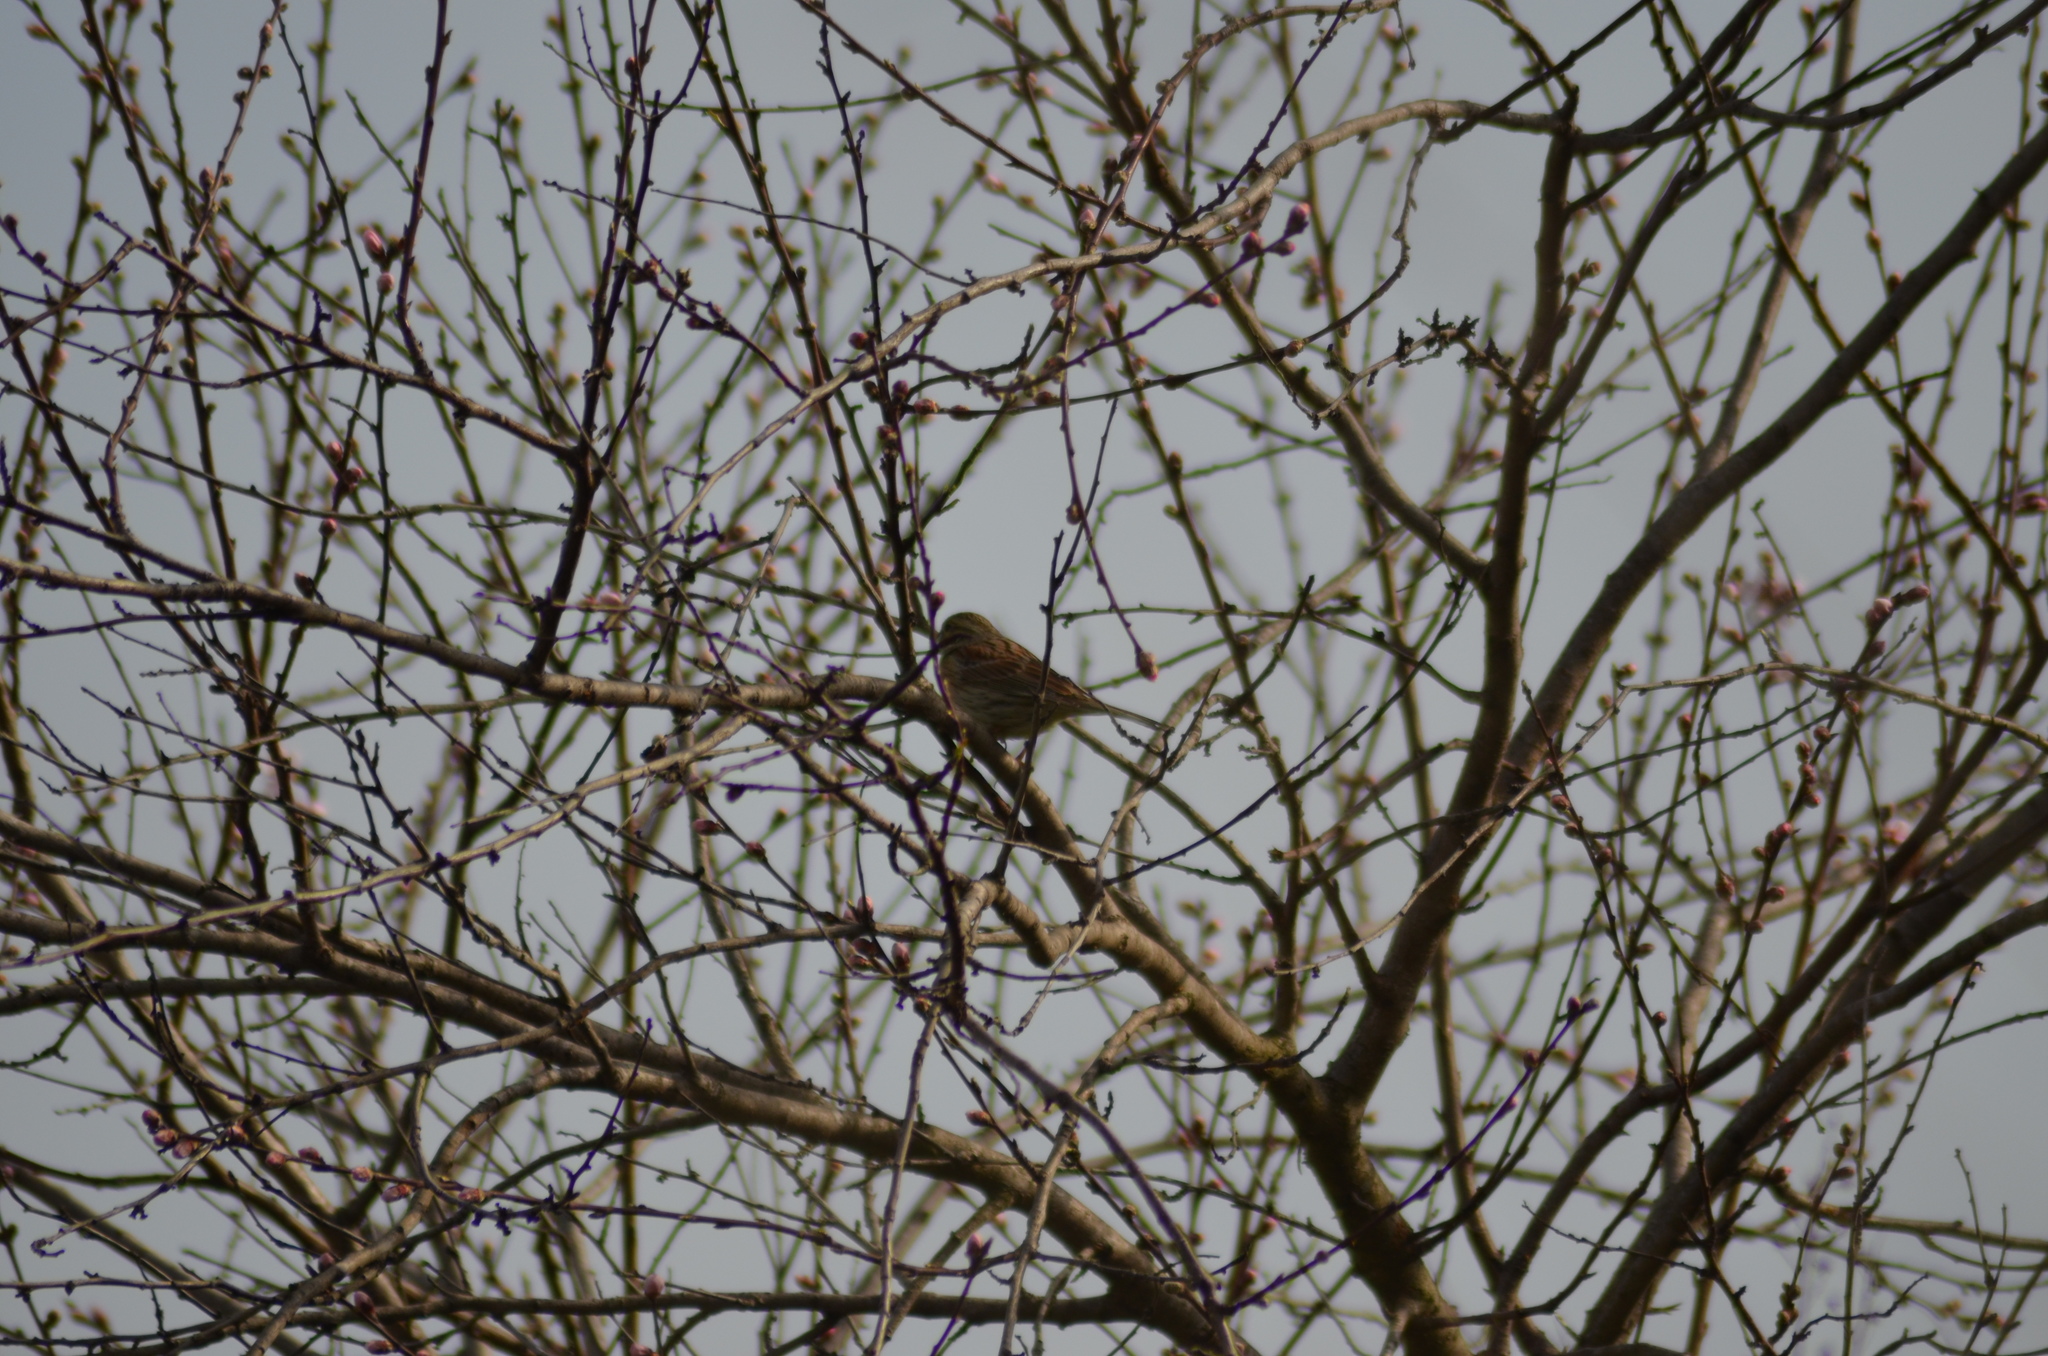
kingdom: Animalia
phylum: Chordata
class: Aves
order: Passeriformes
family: Emberizidae
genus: Emberiza
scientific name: Emberiza cirlus
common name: Cirl bunting
